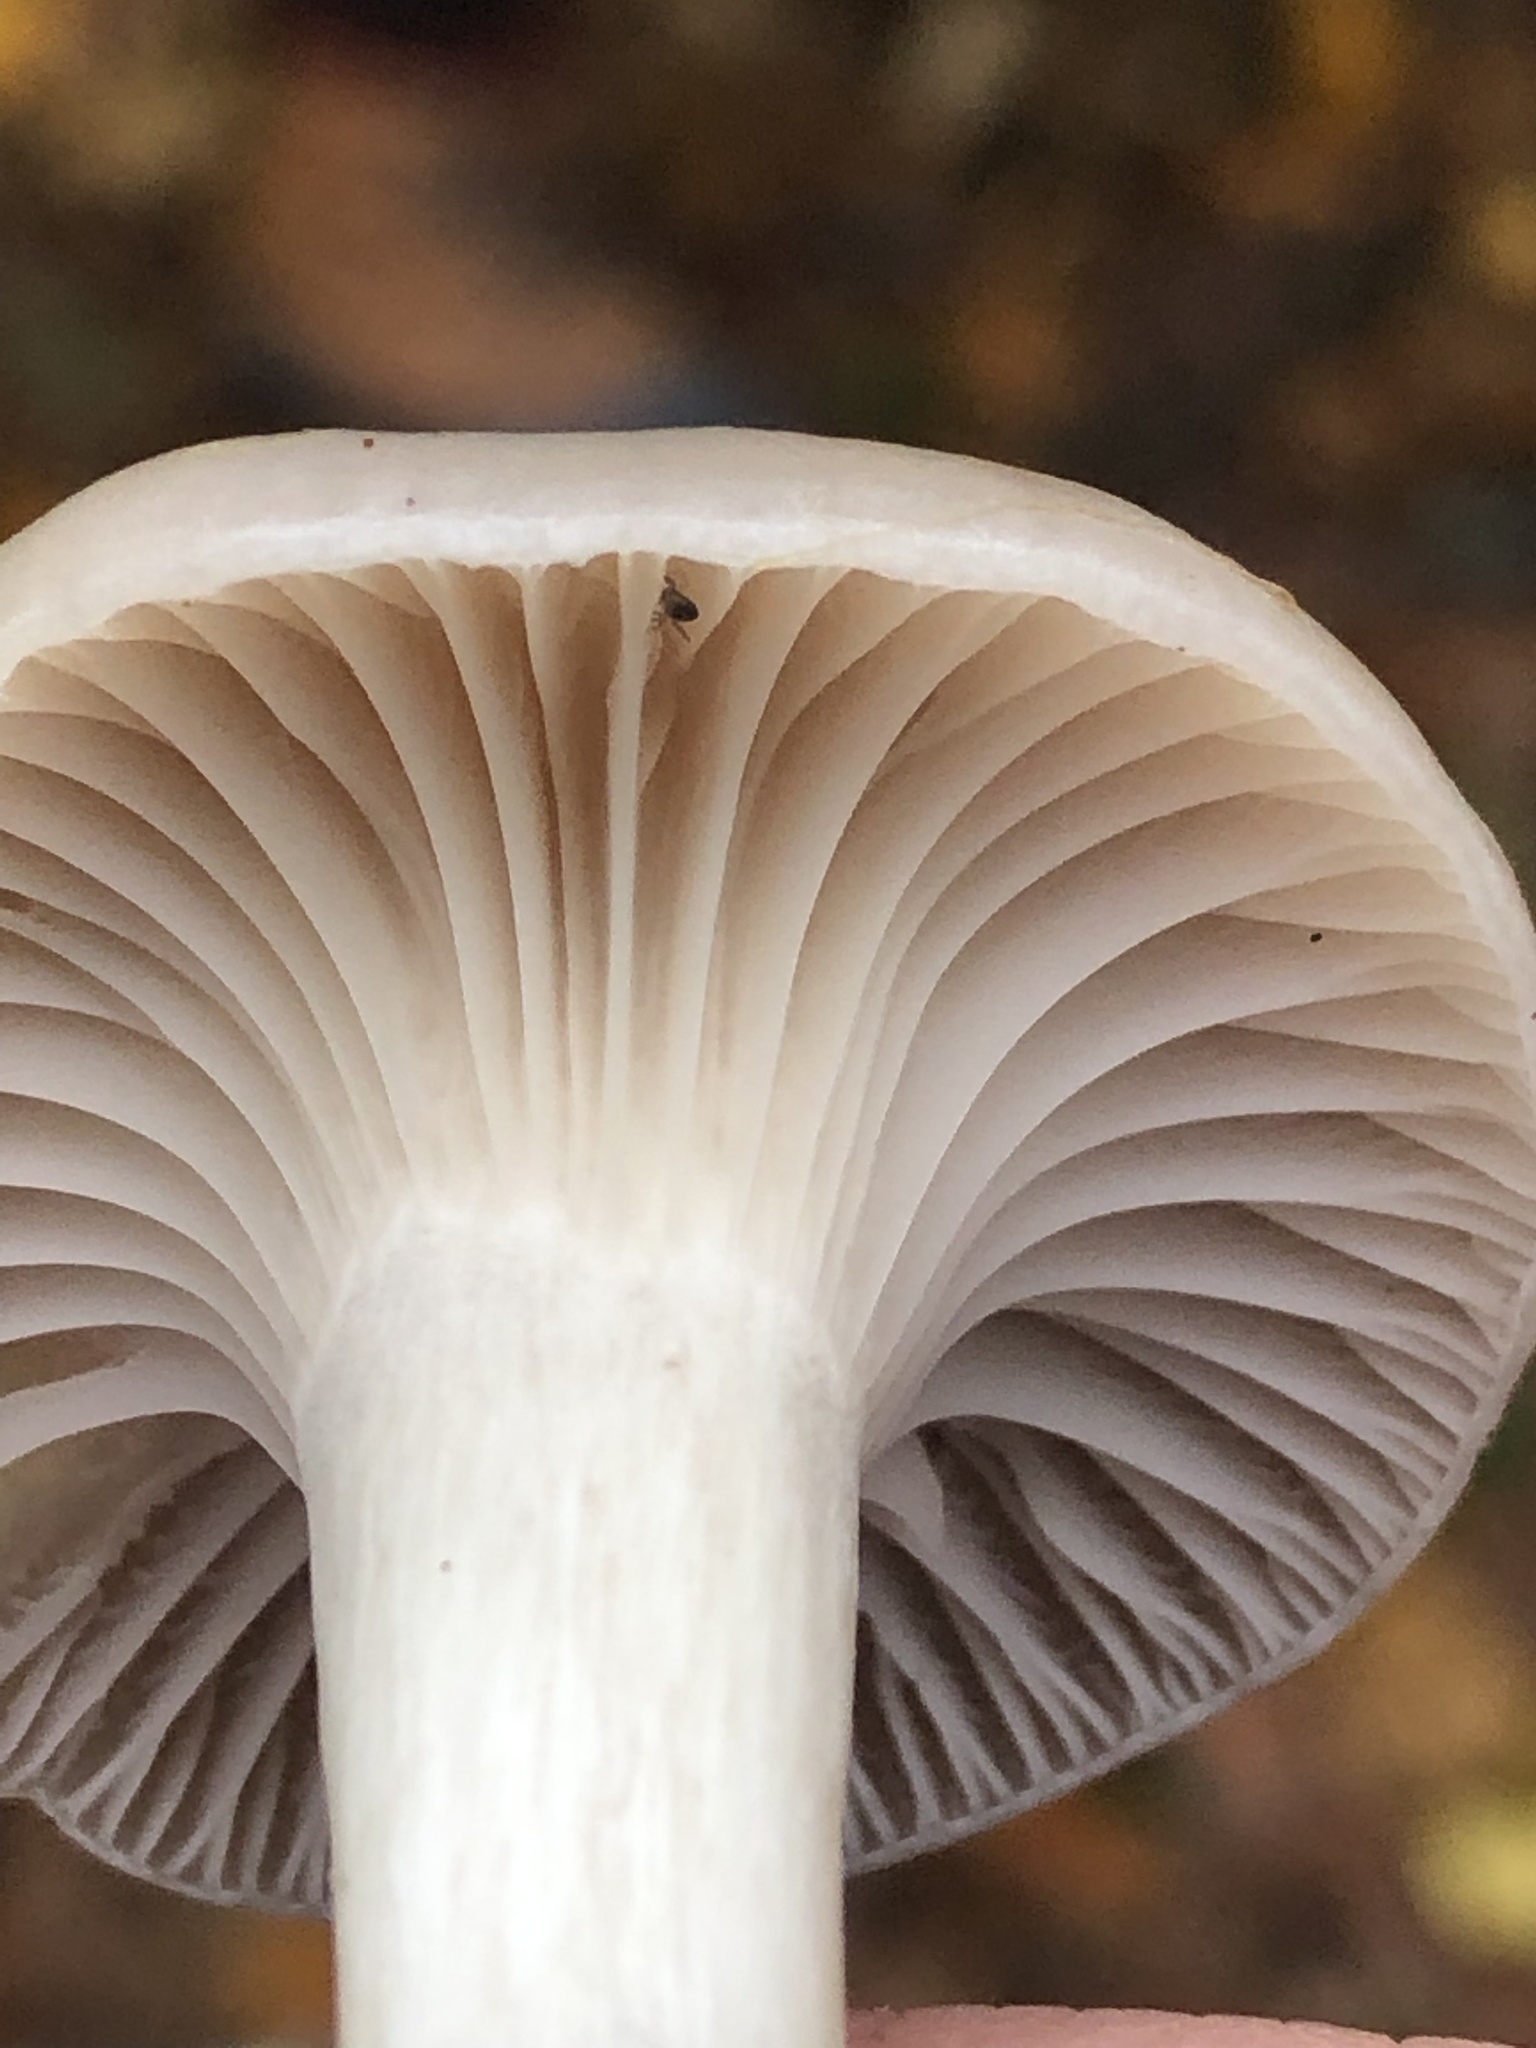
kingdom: Fungi
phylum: Basidiomycota
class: Agaricomycetes
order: Agaricales
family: Hygrophoraceae
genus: Cuphophyllus
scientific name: Cuphophyllus lacmus
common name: Grey waxcap
